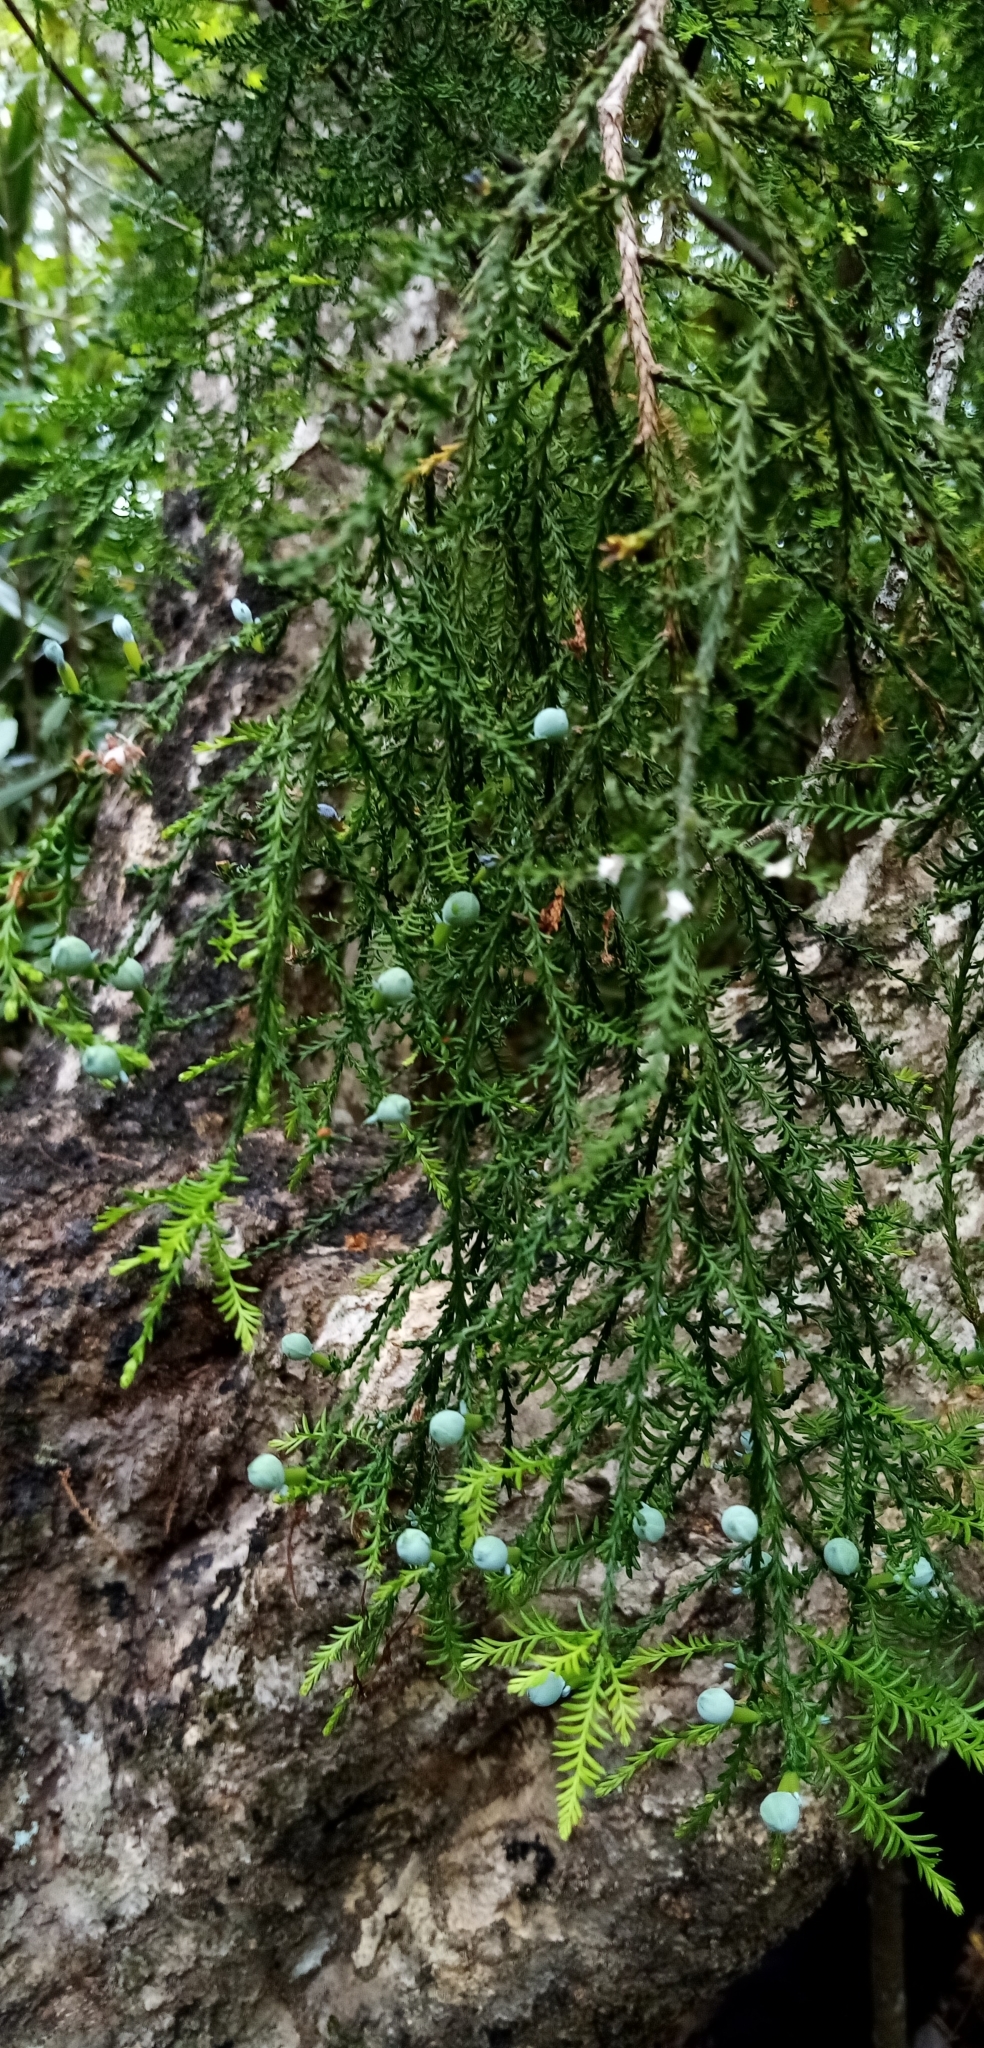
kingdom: Plantae
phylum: Tracheophyta
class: Pinopsida
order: Pinales
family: Podocarpaceae
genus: Dacrycarpus
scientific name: Dacrycarpus dacrydioides
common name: White pine
